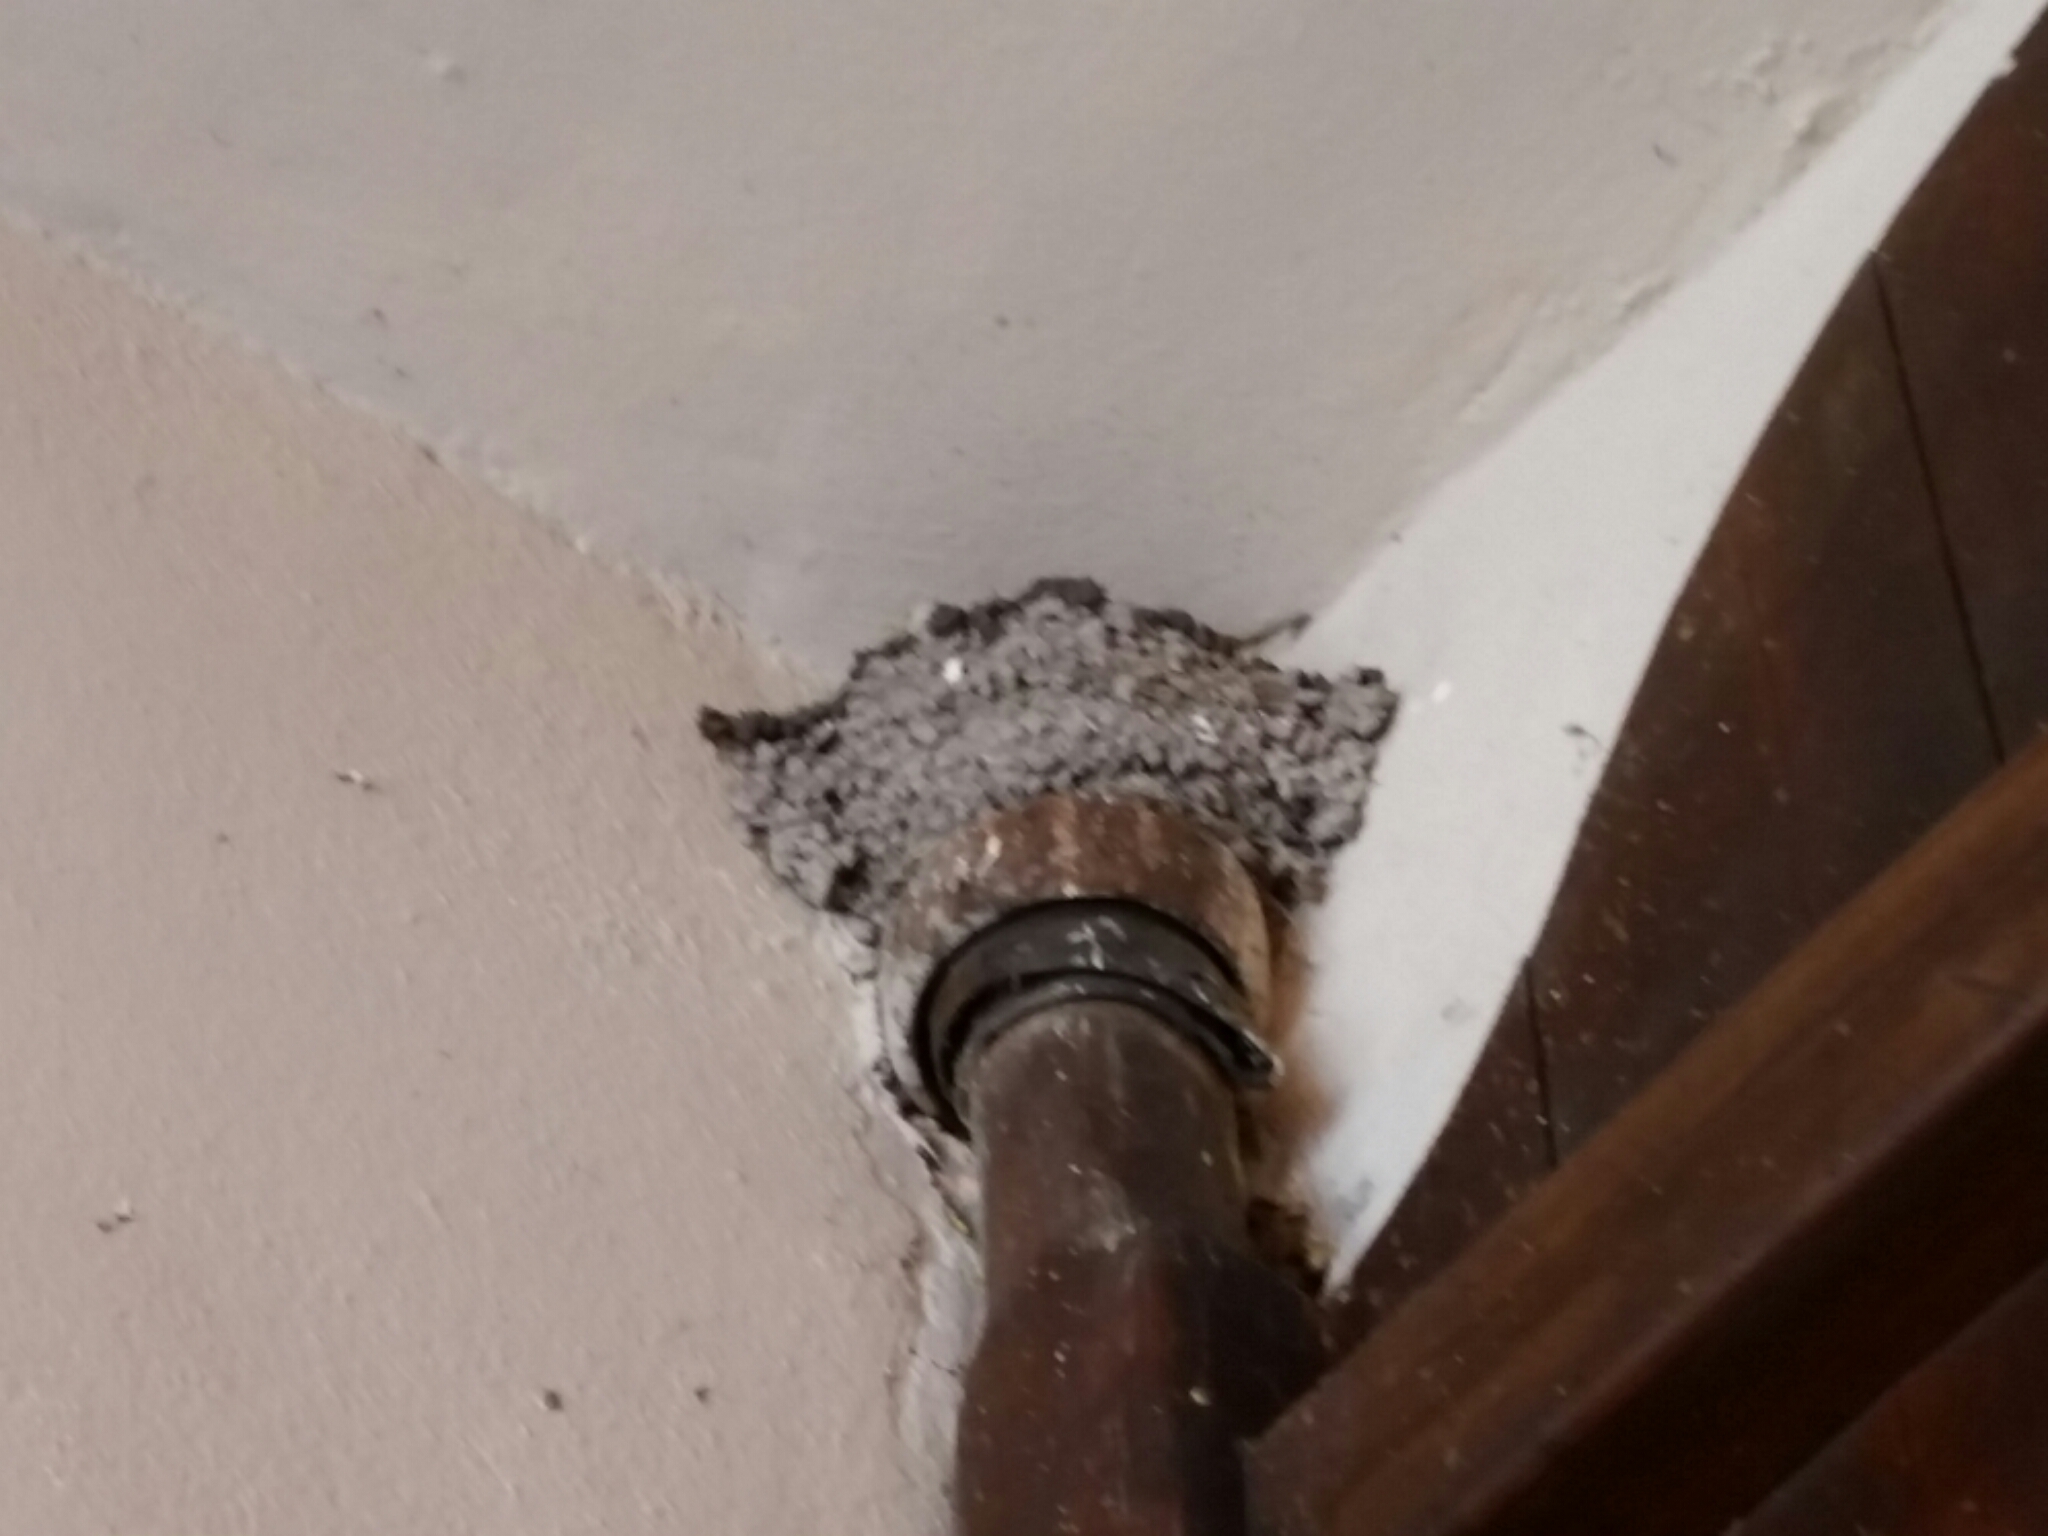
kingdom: Animalia
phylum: Chordata
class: Aves
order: Passeriformes
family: Hirundinidae
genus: Hirundo
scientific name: Hirundo rustica
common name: Barn swallow
